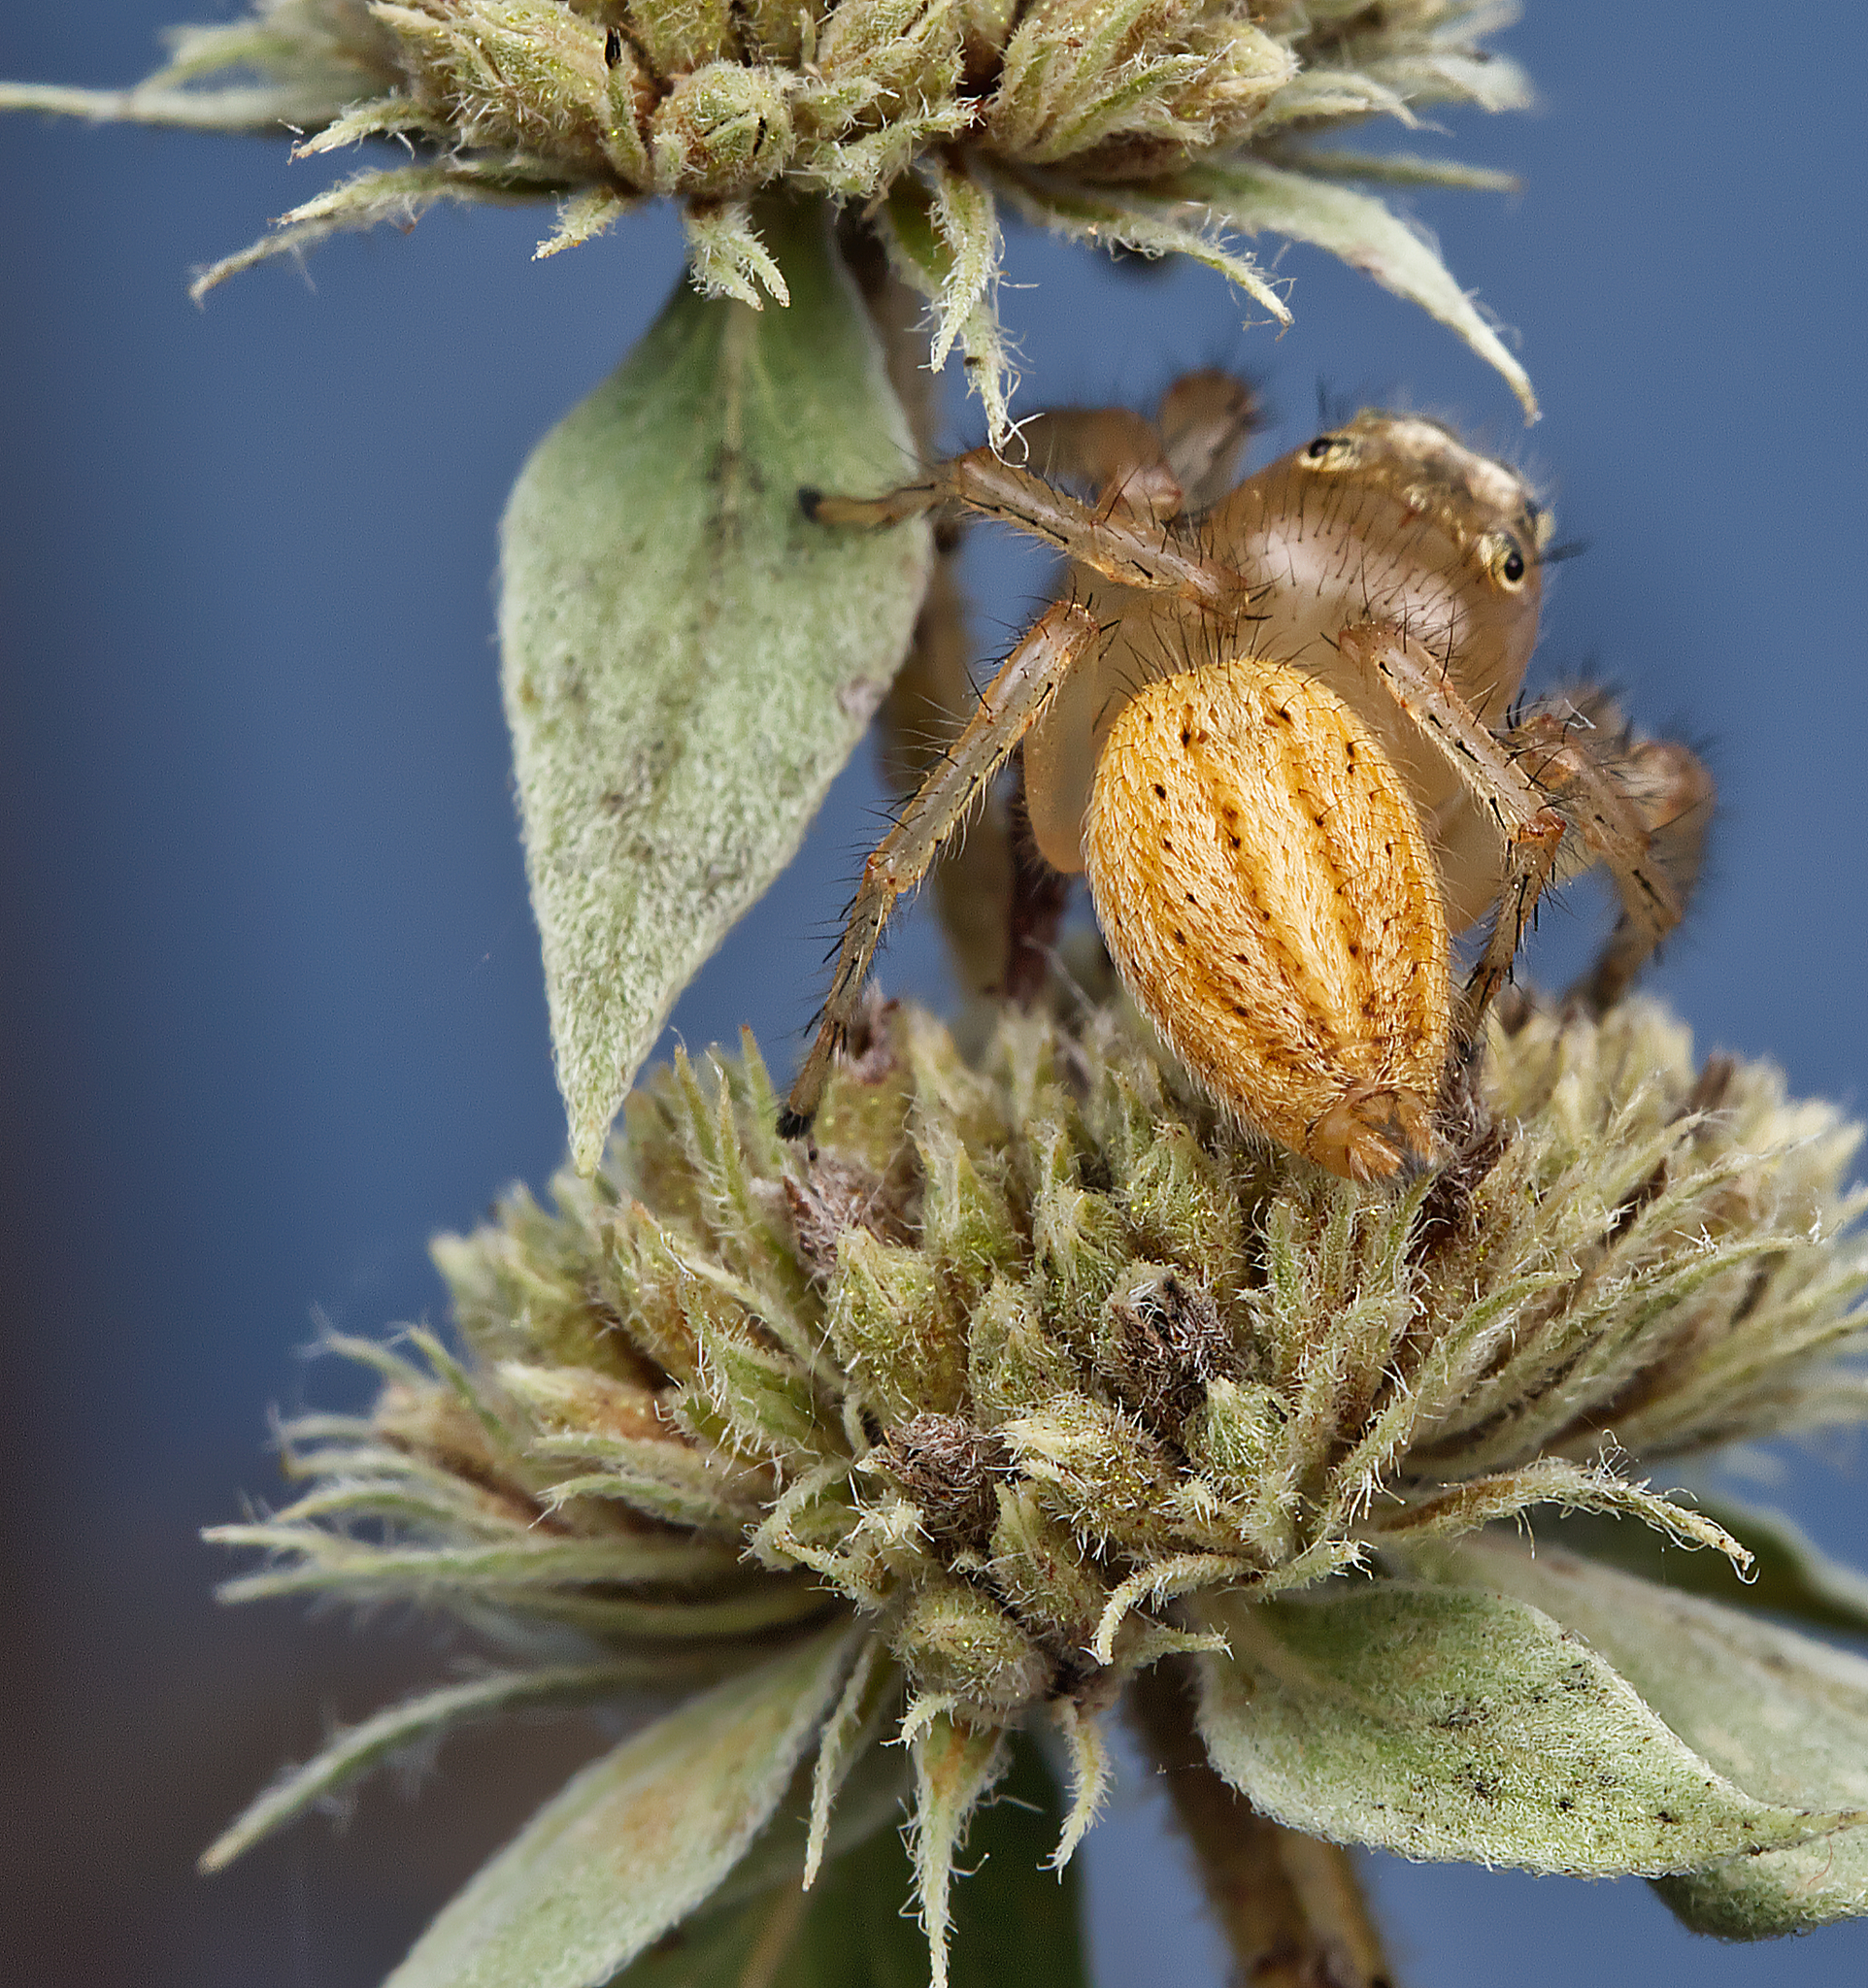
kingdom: Animalia
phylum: Arthropoda
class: Arachnida
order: Araneae
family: Salticidae
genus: Colonus
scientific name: Colonus puerperus
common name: Jumping spiders
